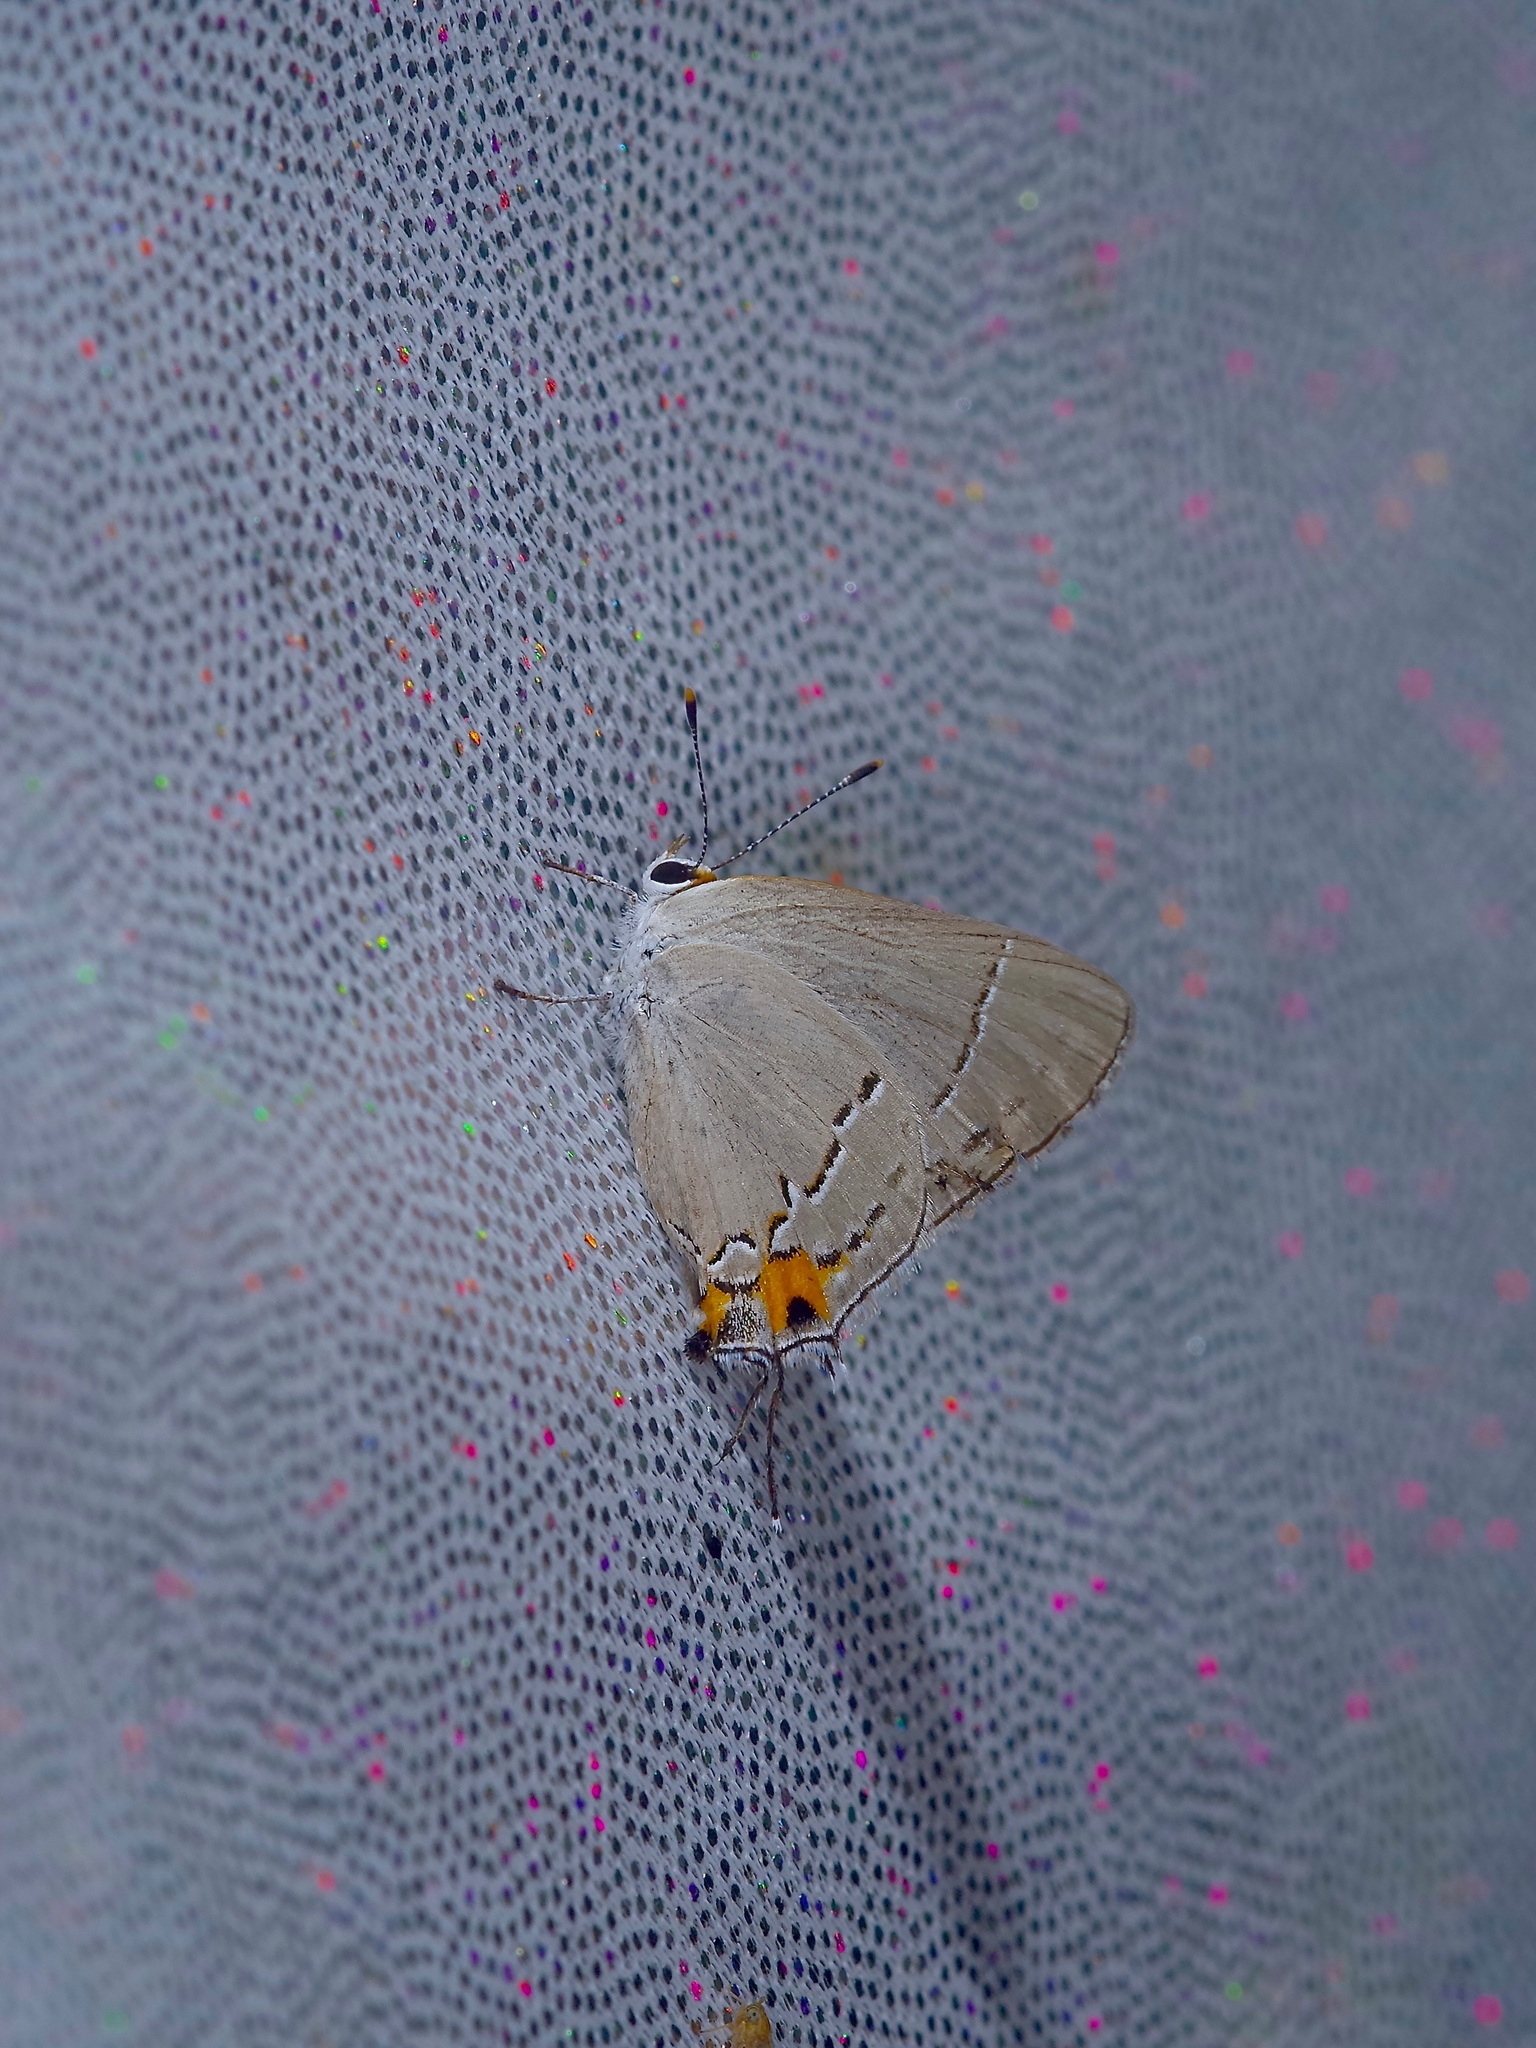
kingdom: Animalia
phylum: Arthropoda
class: Insecta
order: Lepidoptera
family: Lycaenidae
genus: Strymon
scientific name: Strymon melinus
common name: Gray hairstreak
